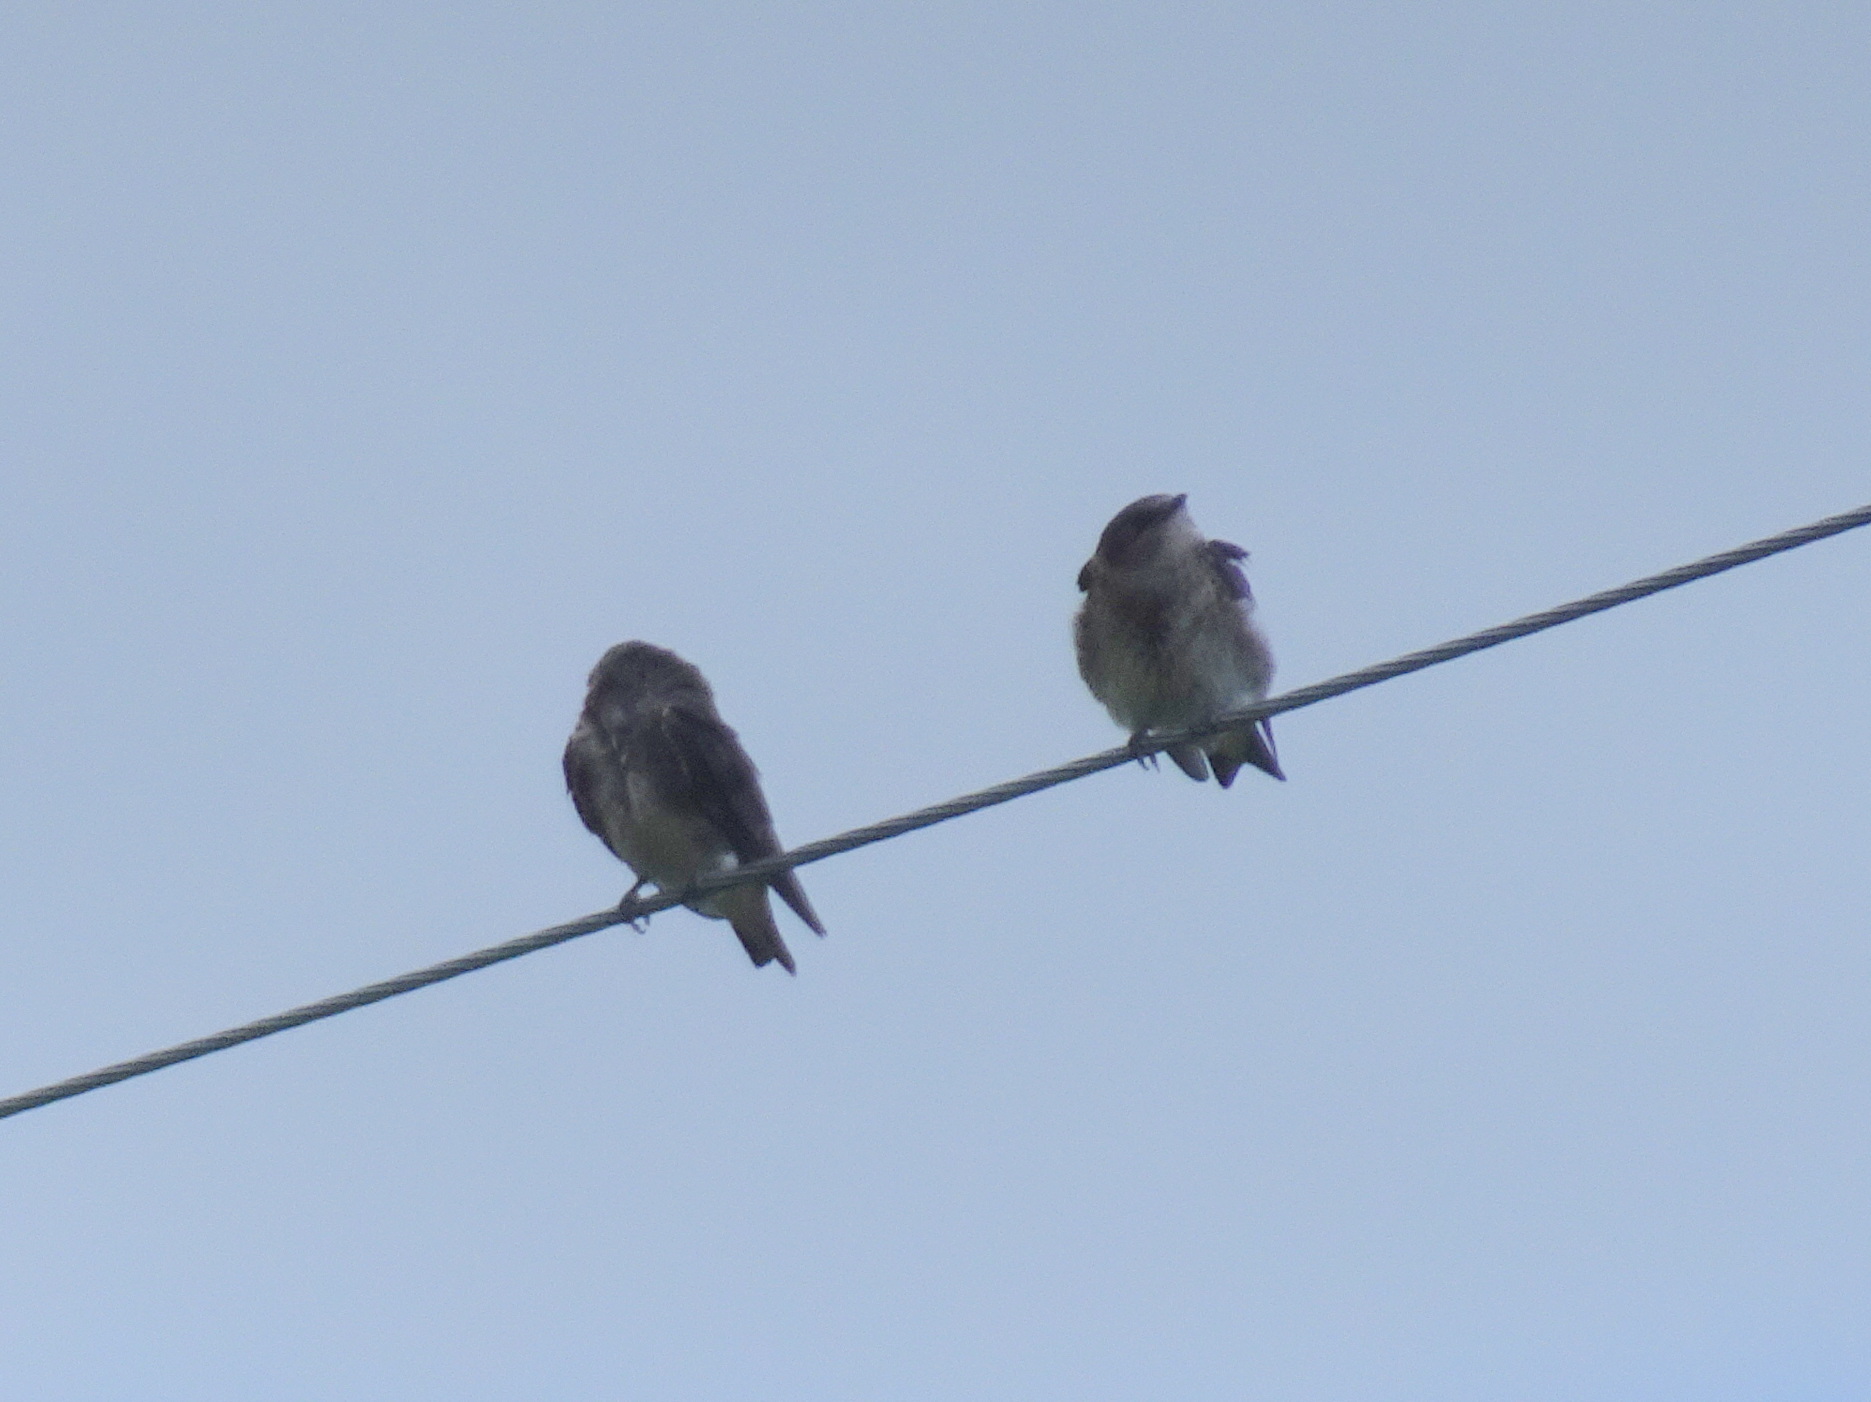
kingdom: Animalia
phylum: Chordata
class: Aves
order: Passeriformes
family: Hirundinidae
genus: Progne
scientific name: Progne subis
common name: Purple martin
